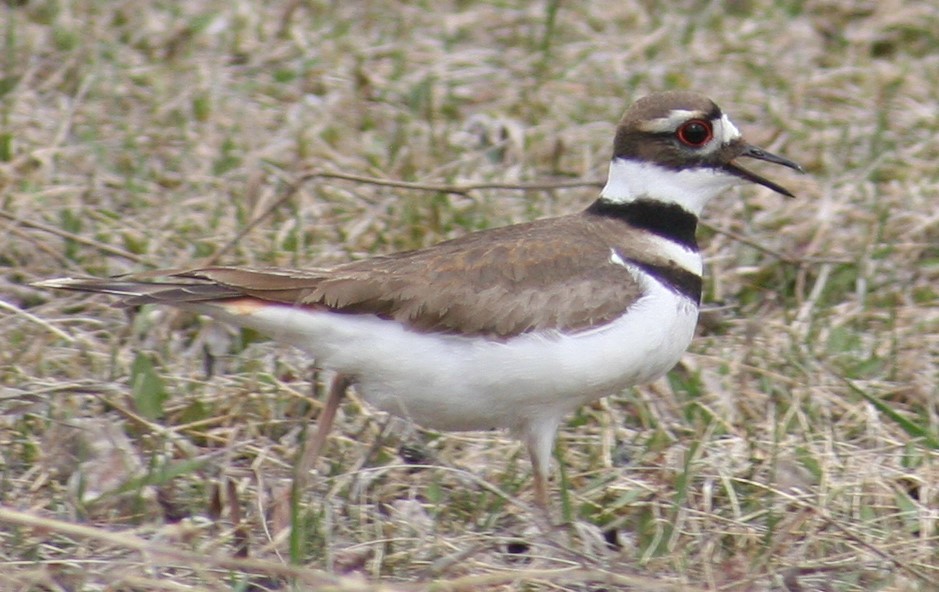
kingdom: Animalia
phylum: Chordata
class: Aves
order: Charadriiformes
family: Charadriidae
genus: Charadrius
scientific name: Charadrius vociferus
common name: Killdeer
